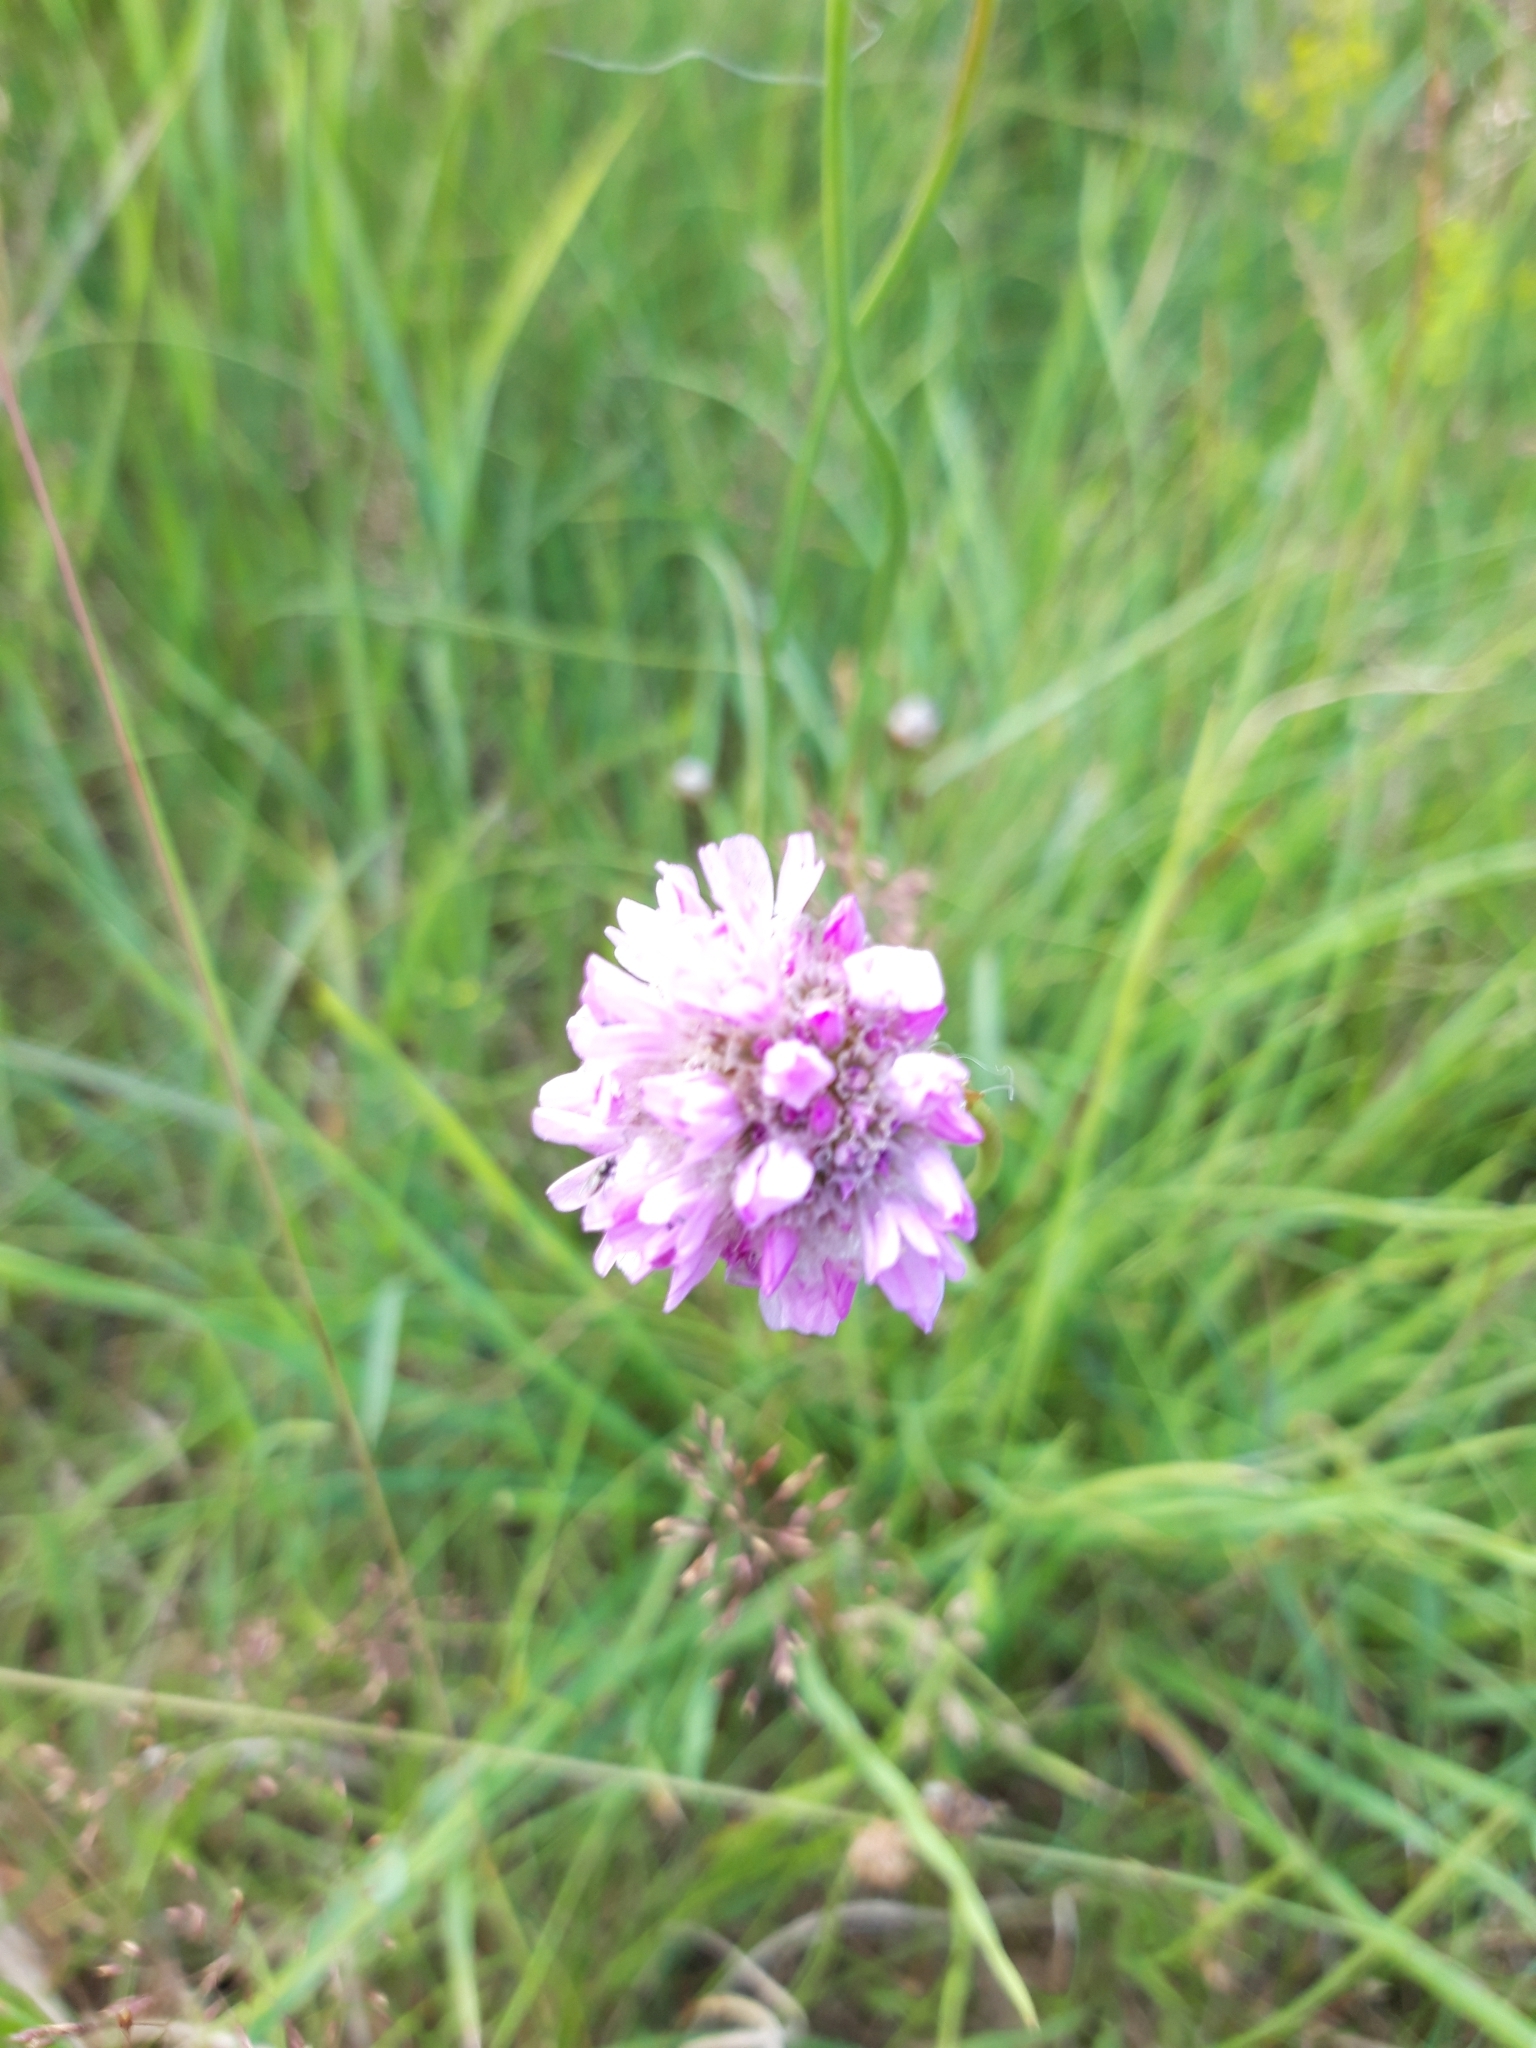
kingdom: Plantae
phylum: Tracheophyta
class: Magnoliopsida
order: Caryophyllales
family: Plumbaginaceae
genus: Armeria
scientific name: Armeria maritima
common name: Thrift
